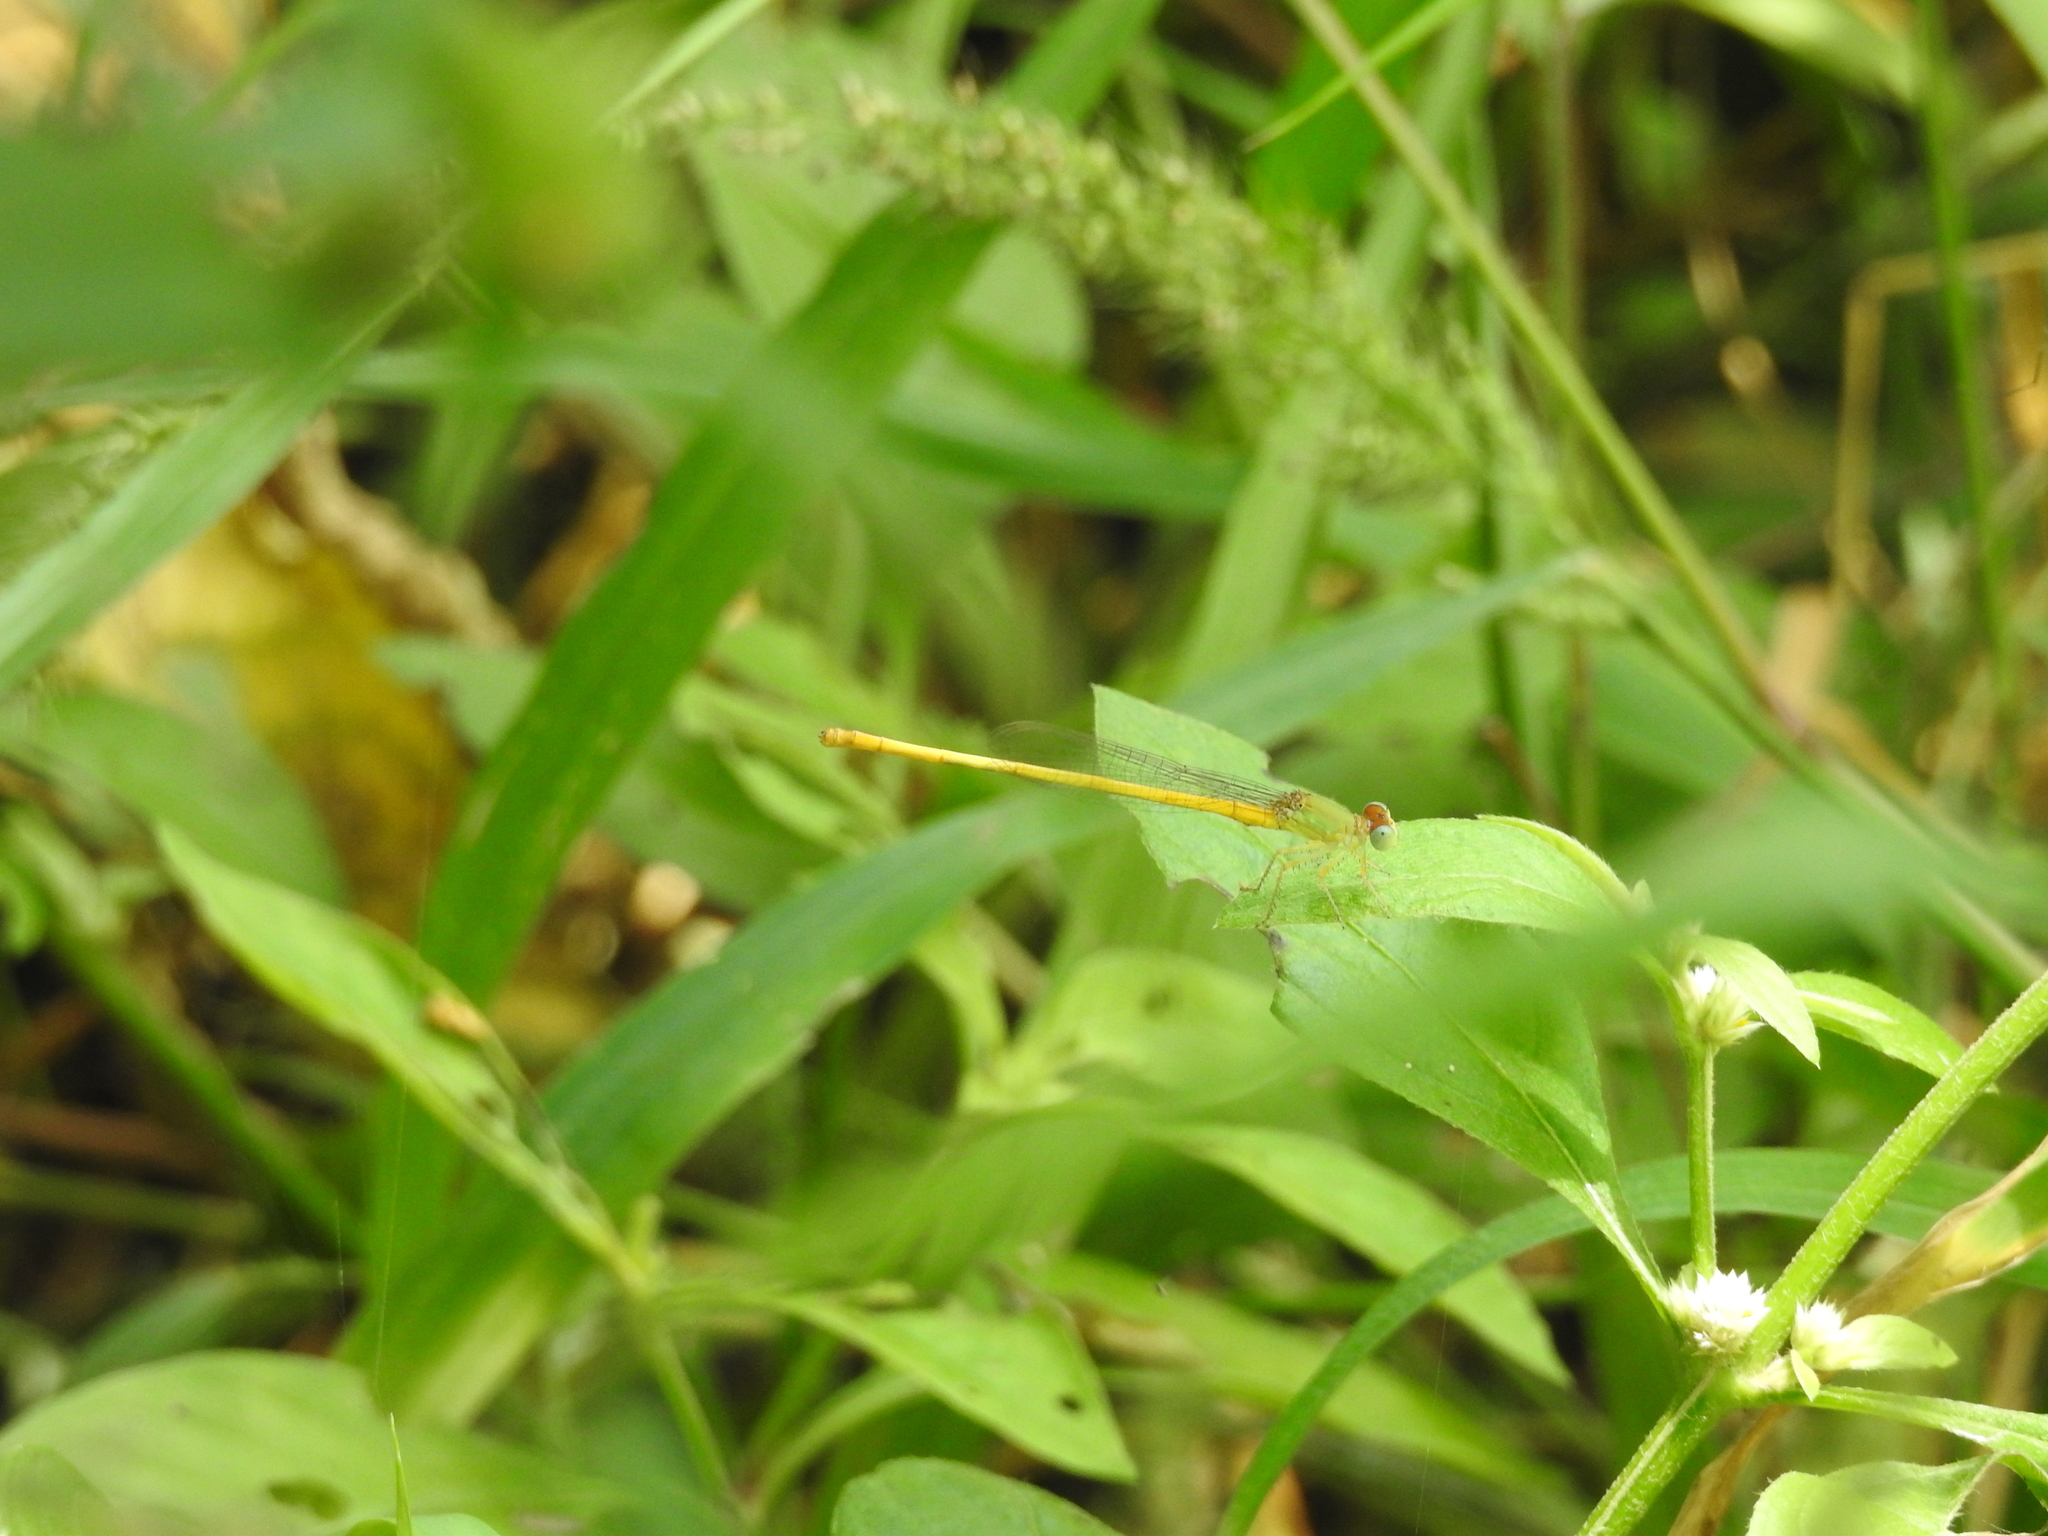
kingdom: Animalia
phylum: Arthropoda
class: Insecta
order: Odonata
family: Coenagrionidae
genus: Ceriagrion
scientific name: Ceriagrion coromandelianum
